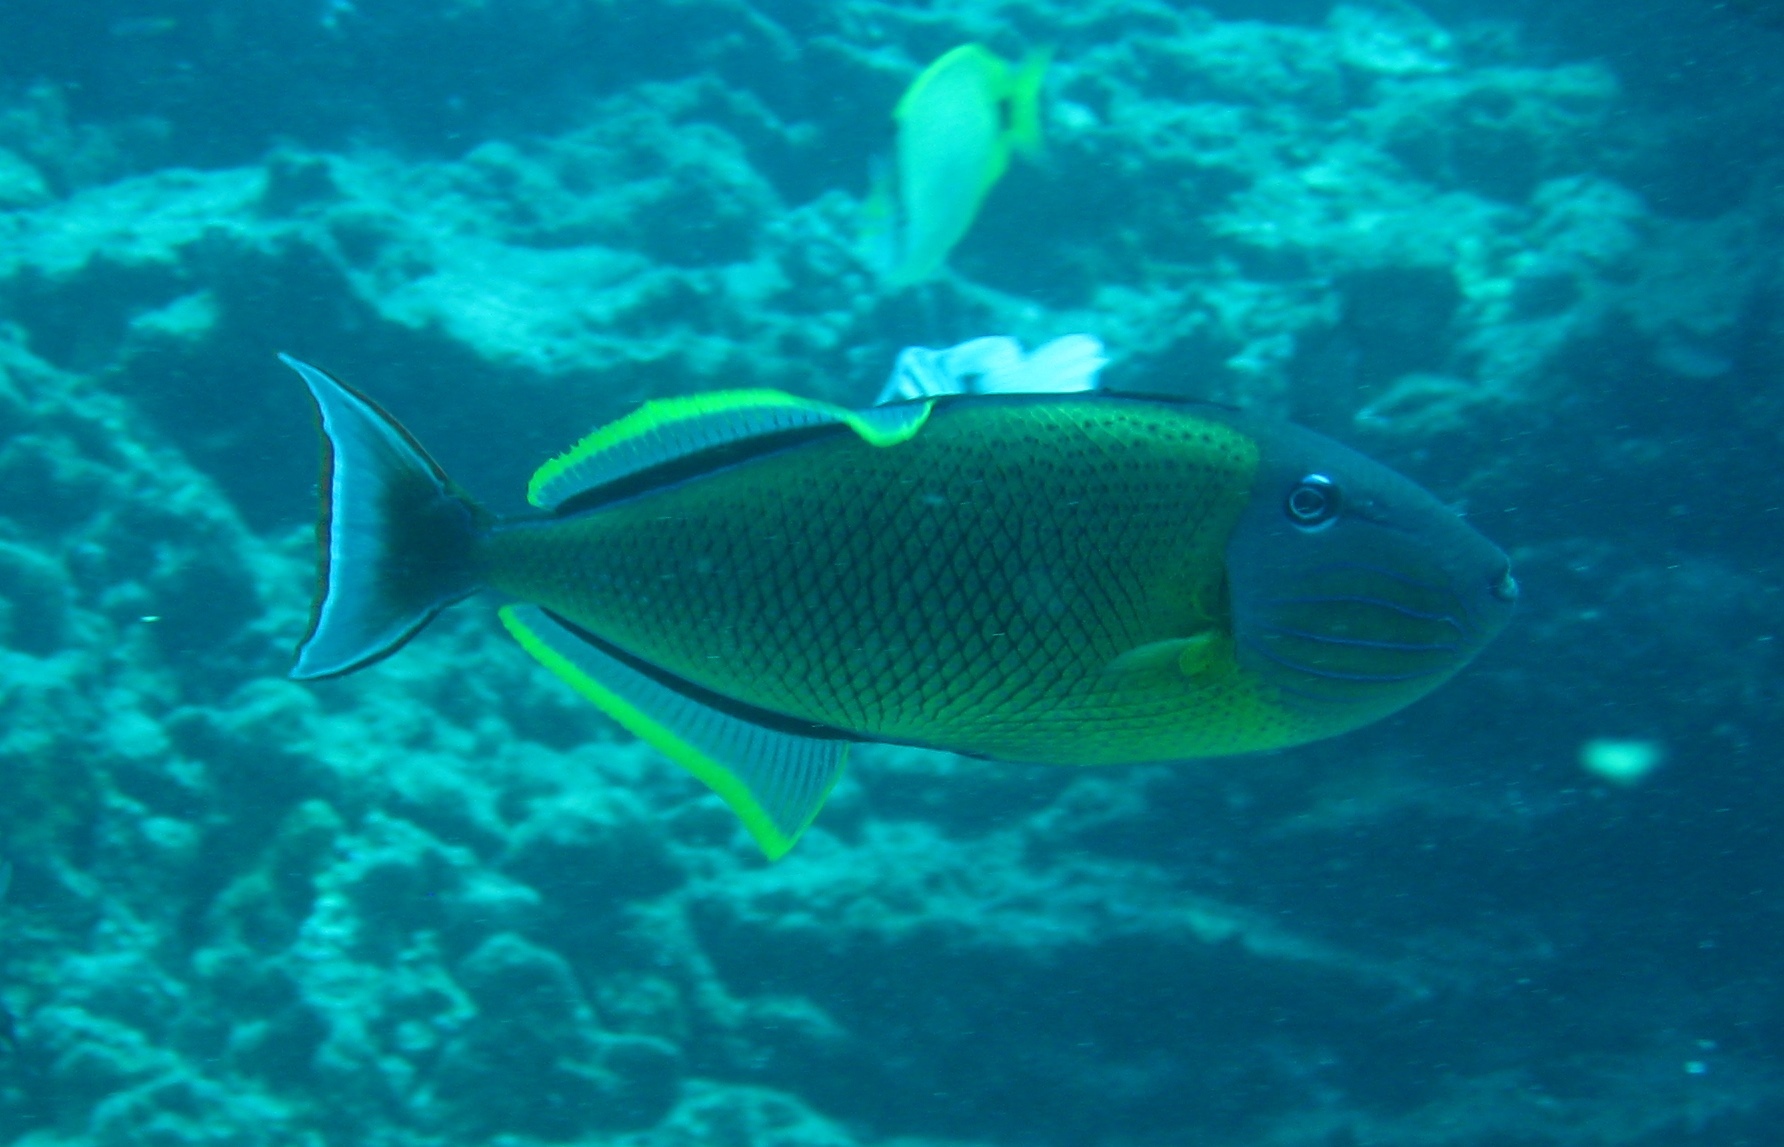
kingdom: Animalia
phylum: Chordata
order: Tetraodontiformes
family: Balistidae
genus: Xanthichthys
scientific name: Xanthichthys mento
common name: Blue-throat trigger
